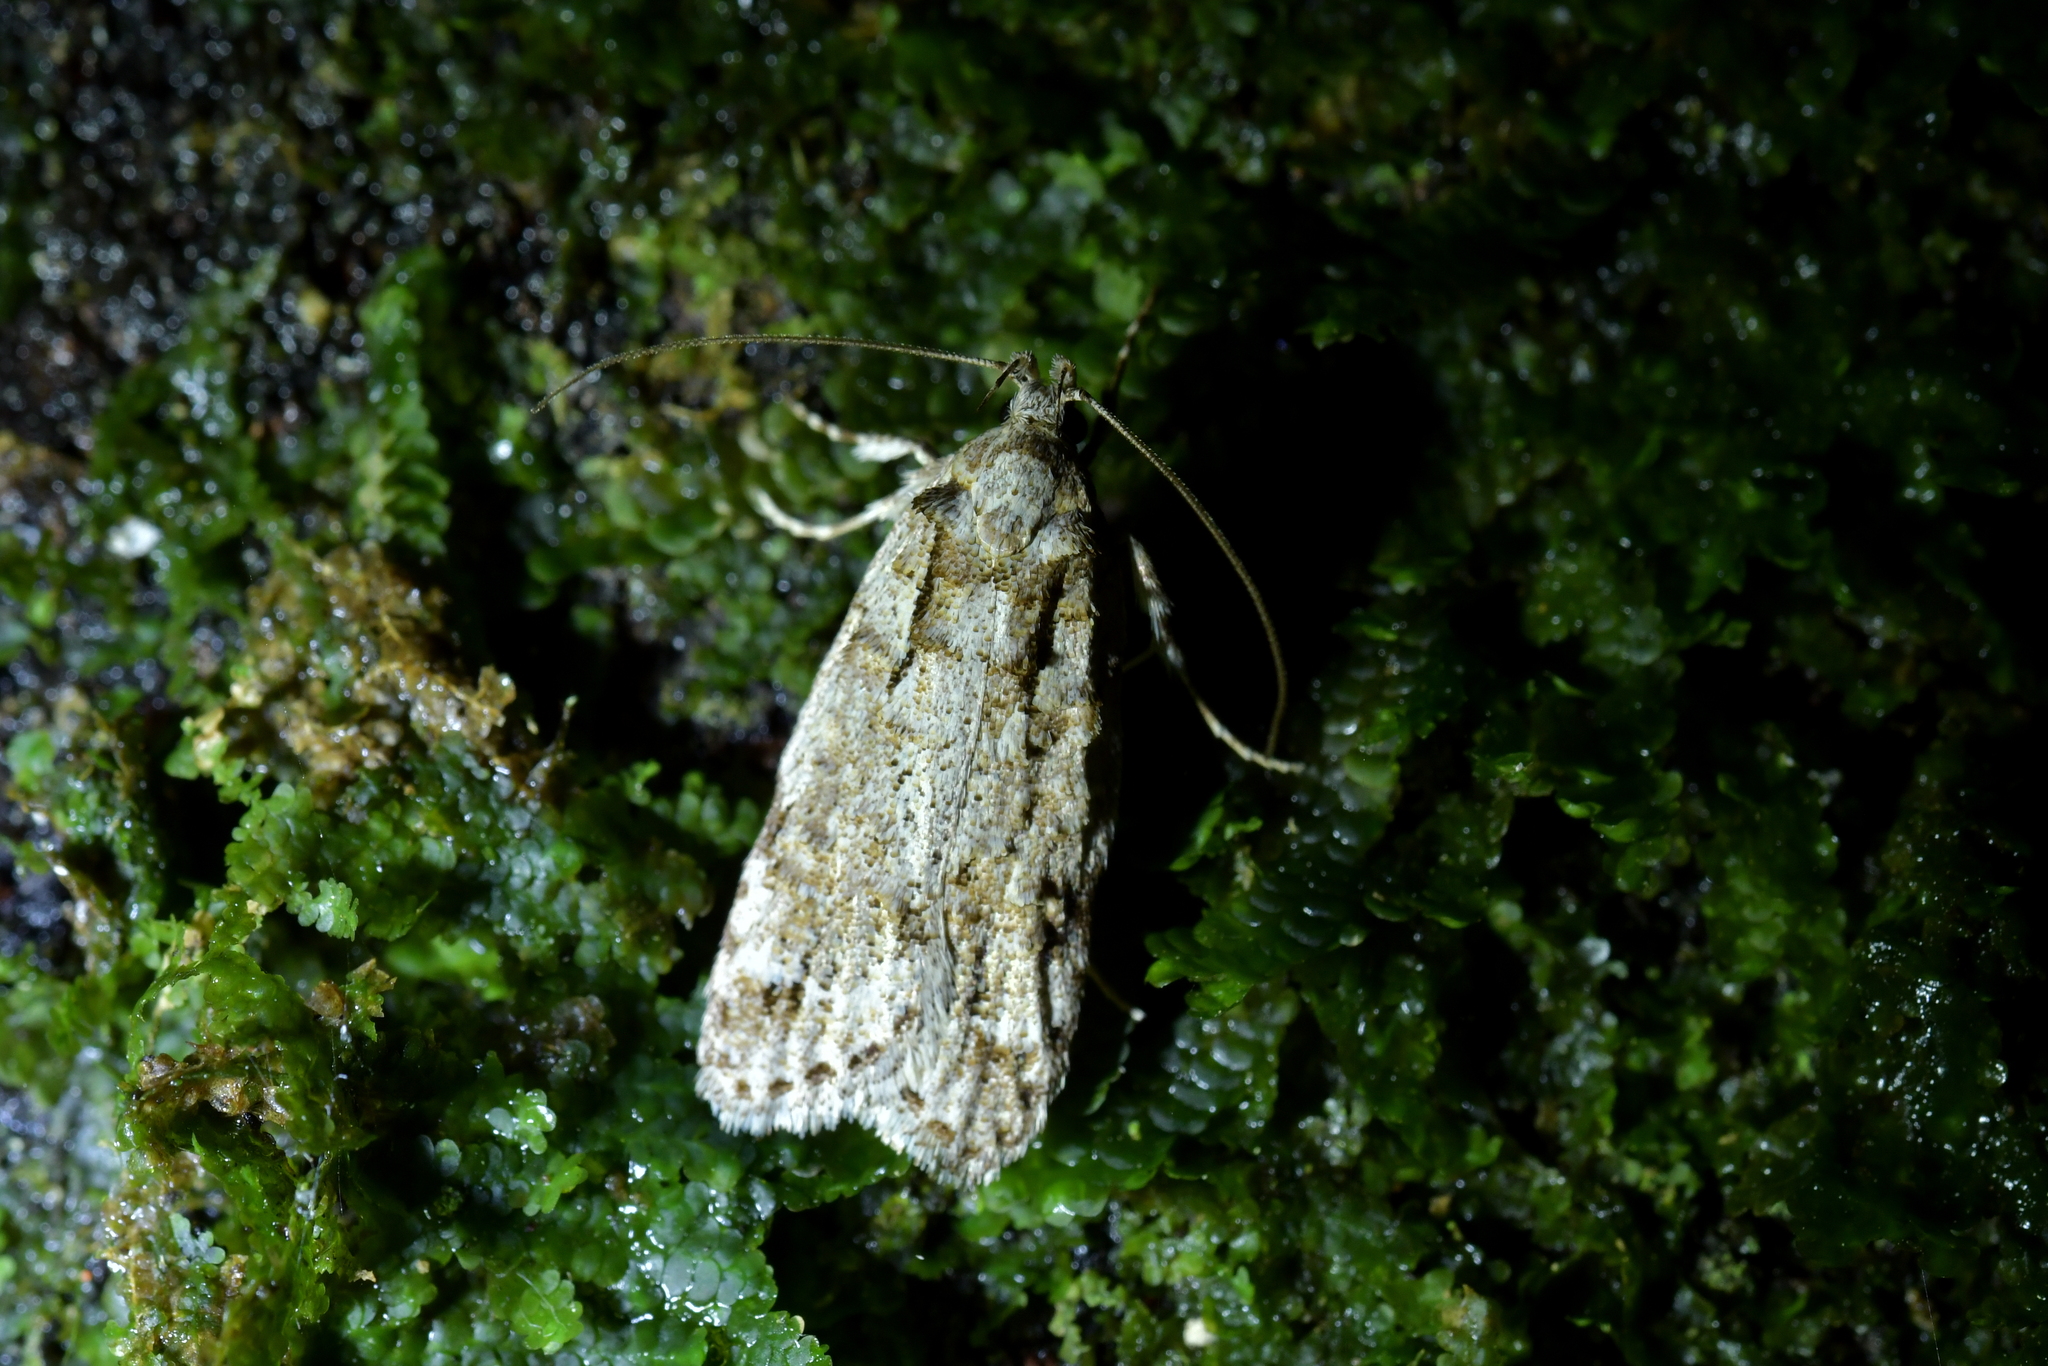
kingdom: Animalia
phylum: Arthropoda
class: Insecta
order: Lepidoptera
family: Oecophoridae
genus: Izatha
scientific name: Izatha attactella
